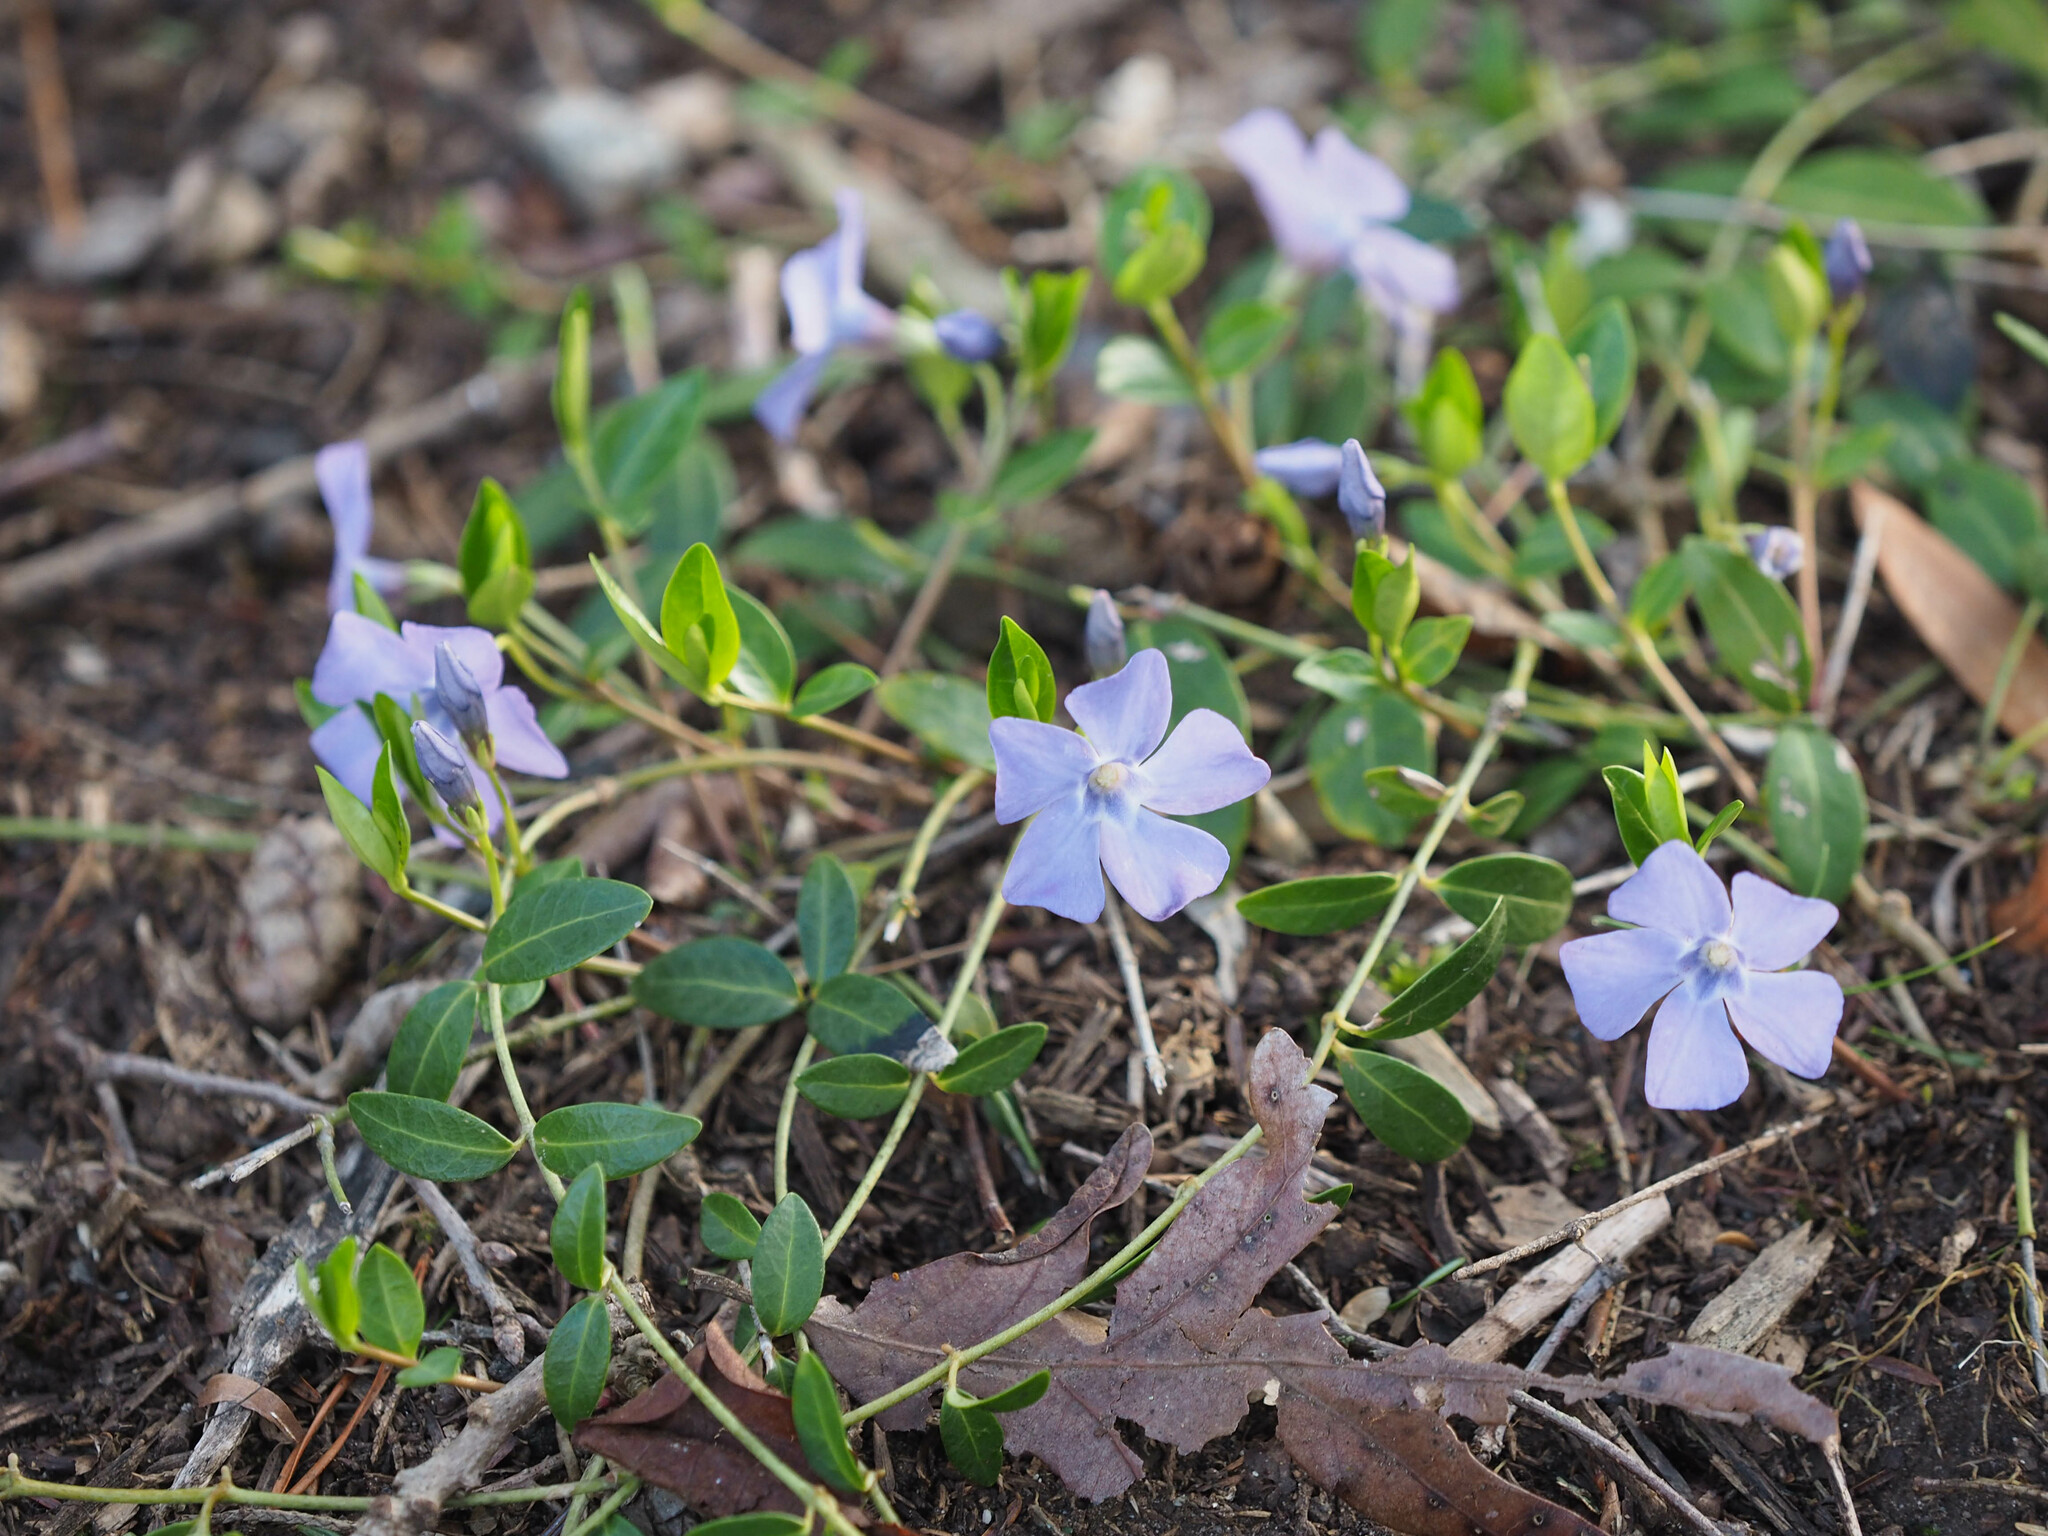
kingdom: Plantae
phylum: Tracheophyta
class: Magnoliopsida
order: Gentianales
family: Apocynaceae
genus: Vinca
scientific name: Vinca minor
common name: Lesser periwinkle
